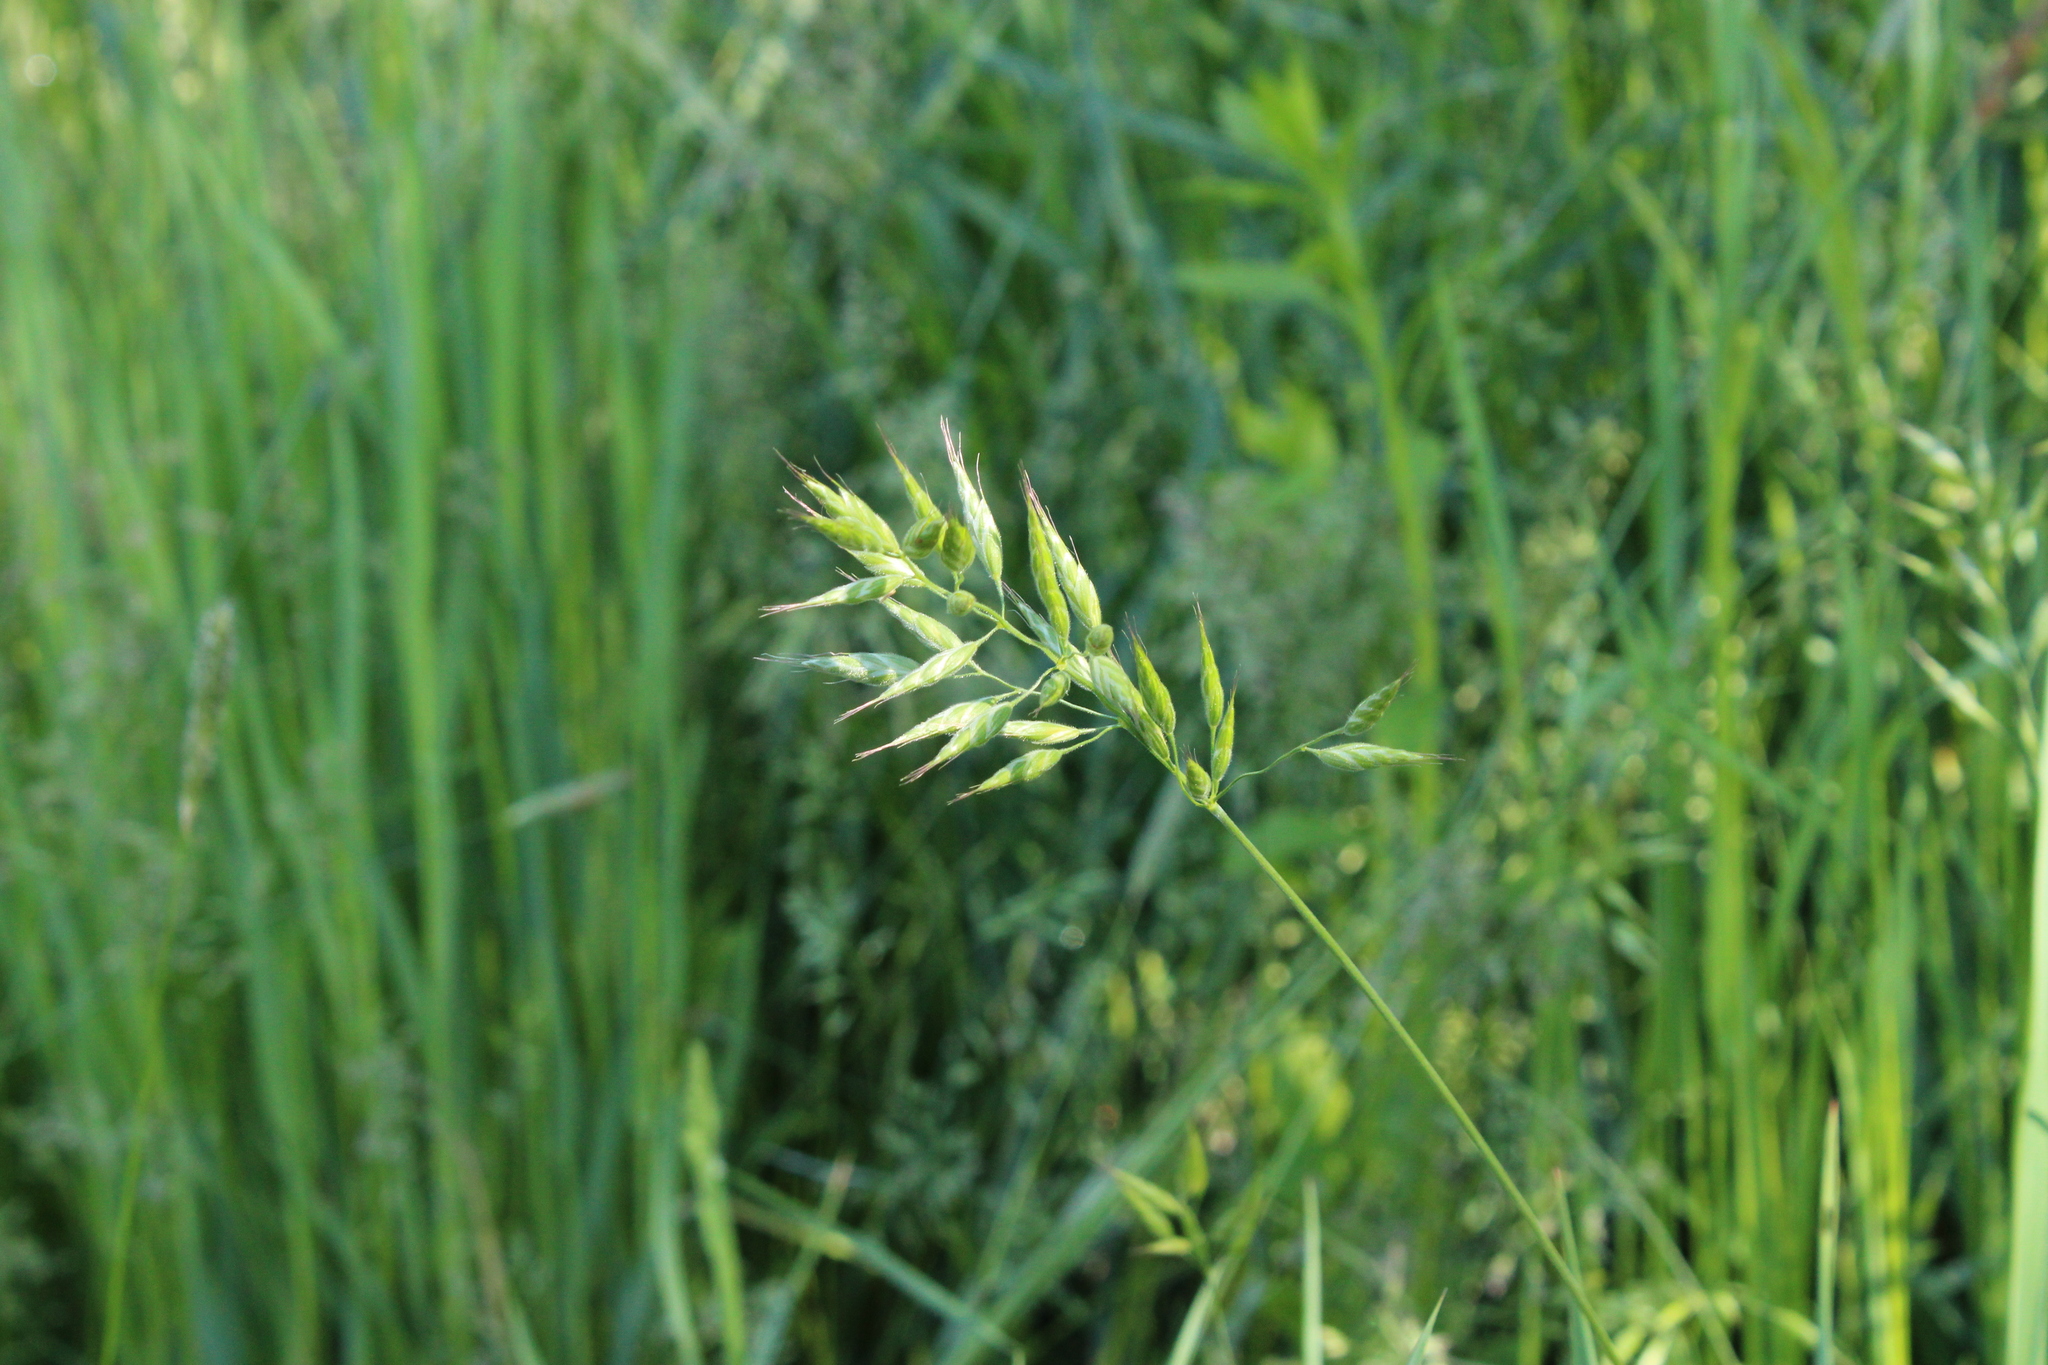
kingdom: Plantae
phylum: Tracheophyta
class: Liliopsida
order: Poales
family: Poaceae
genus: Bromus
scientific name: Bromus hordeaceus
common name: Soft brome
